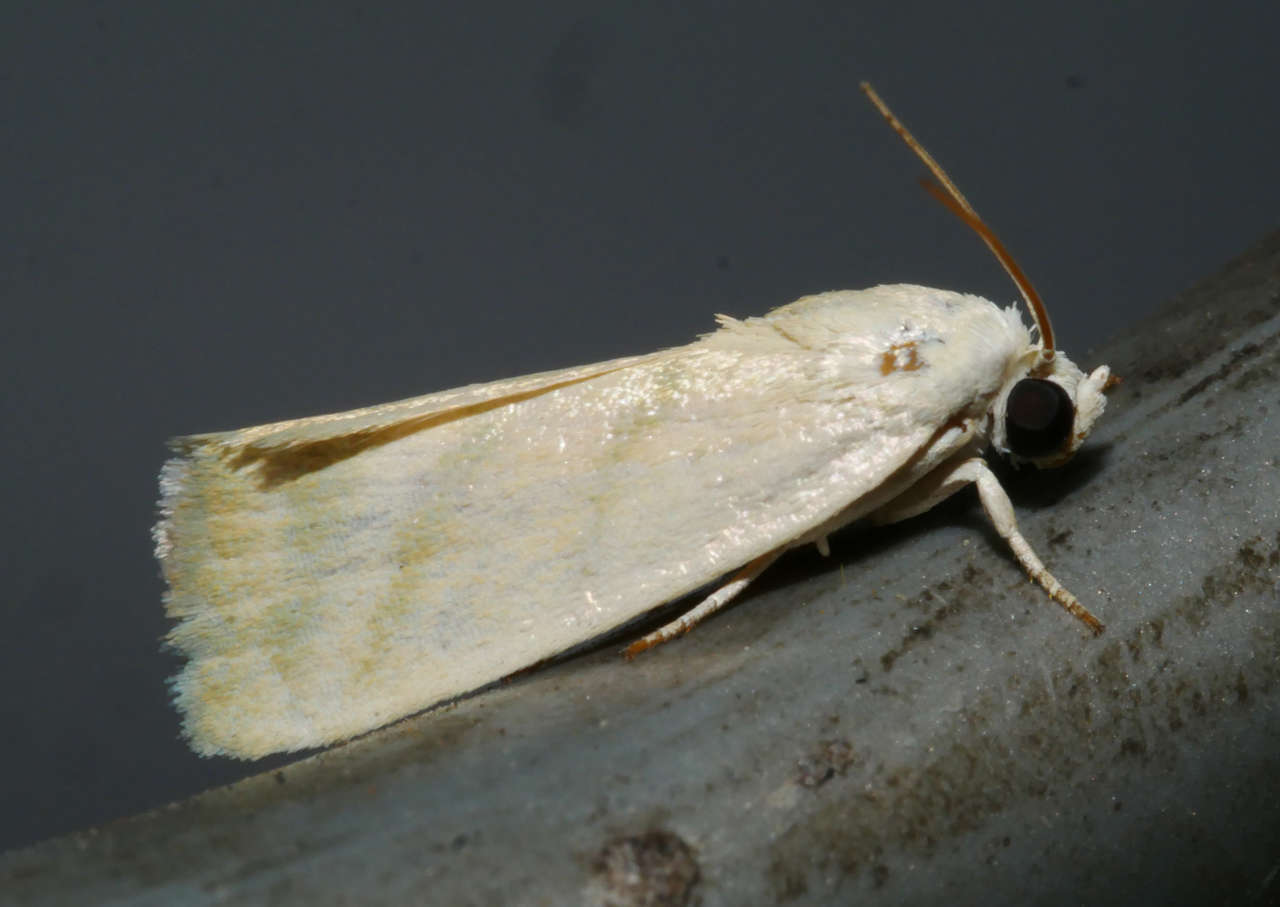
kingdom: Animalia
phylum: Arthropoda
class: Insecta
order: Lepidoptera
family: Nolidae
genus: Earias
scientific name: Earias paralella
